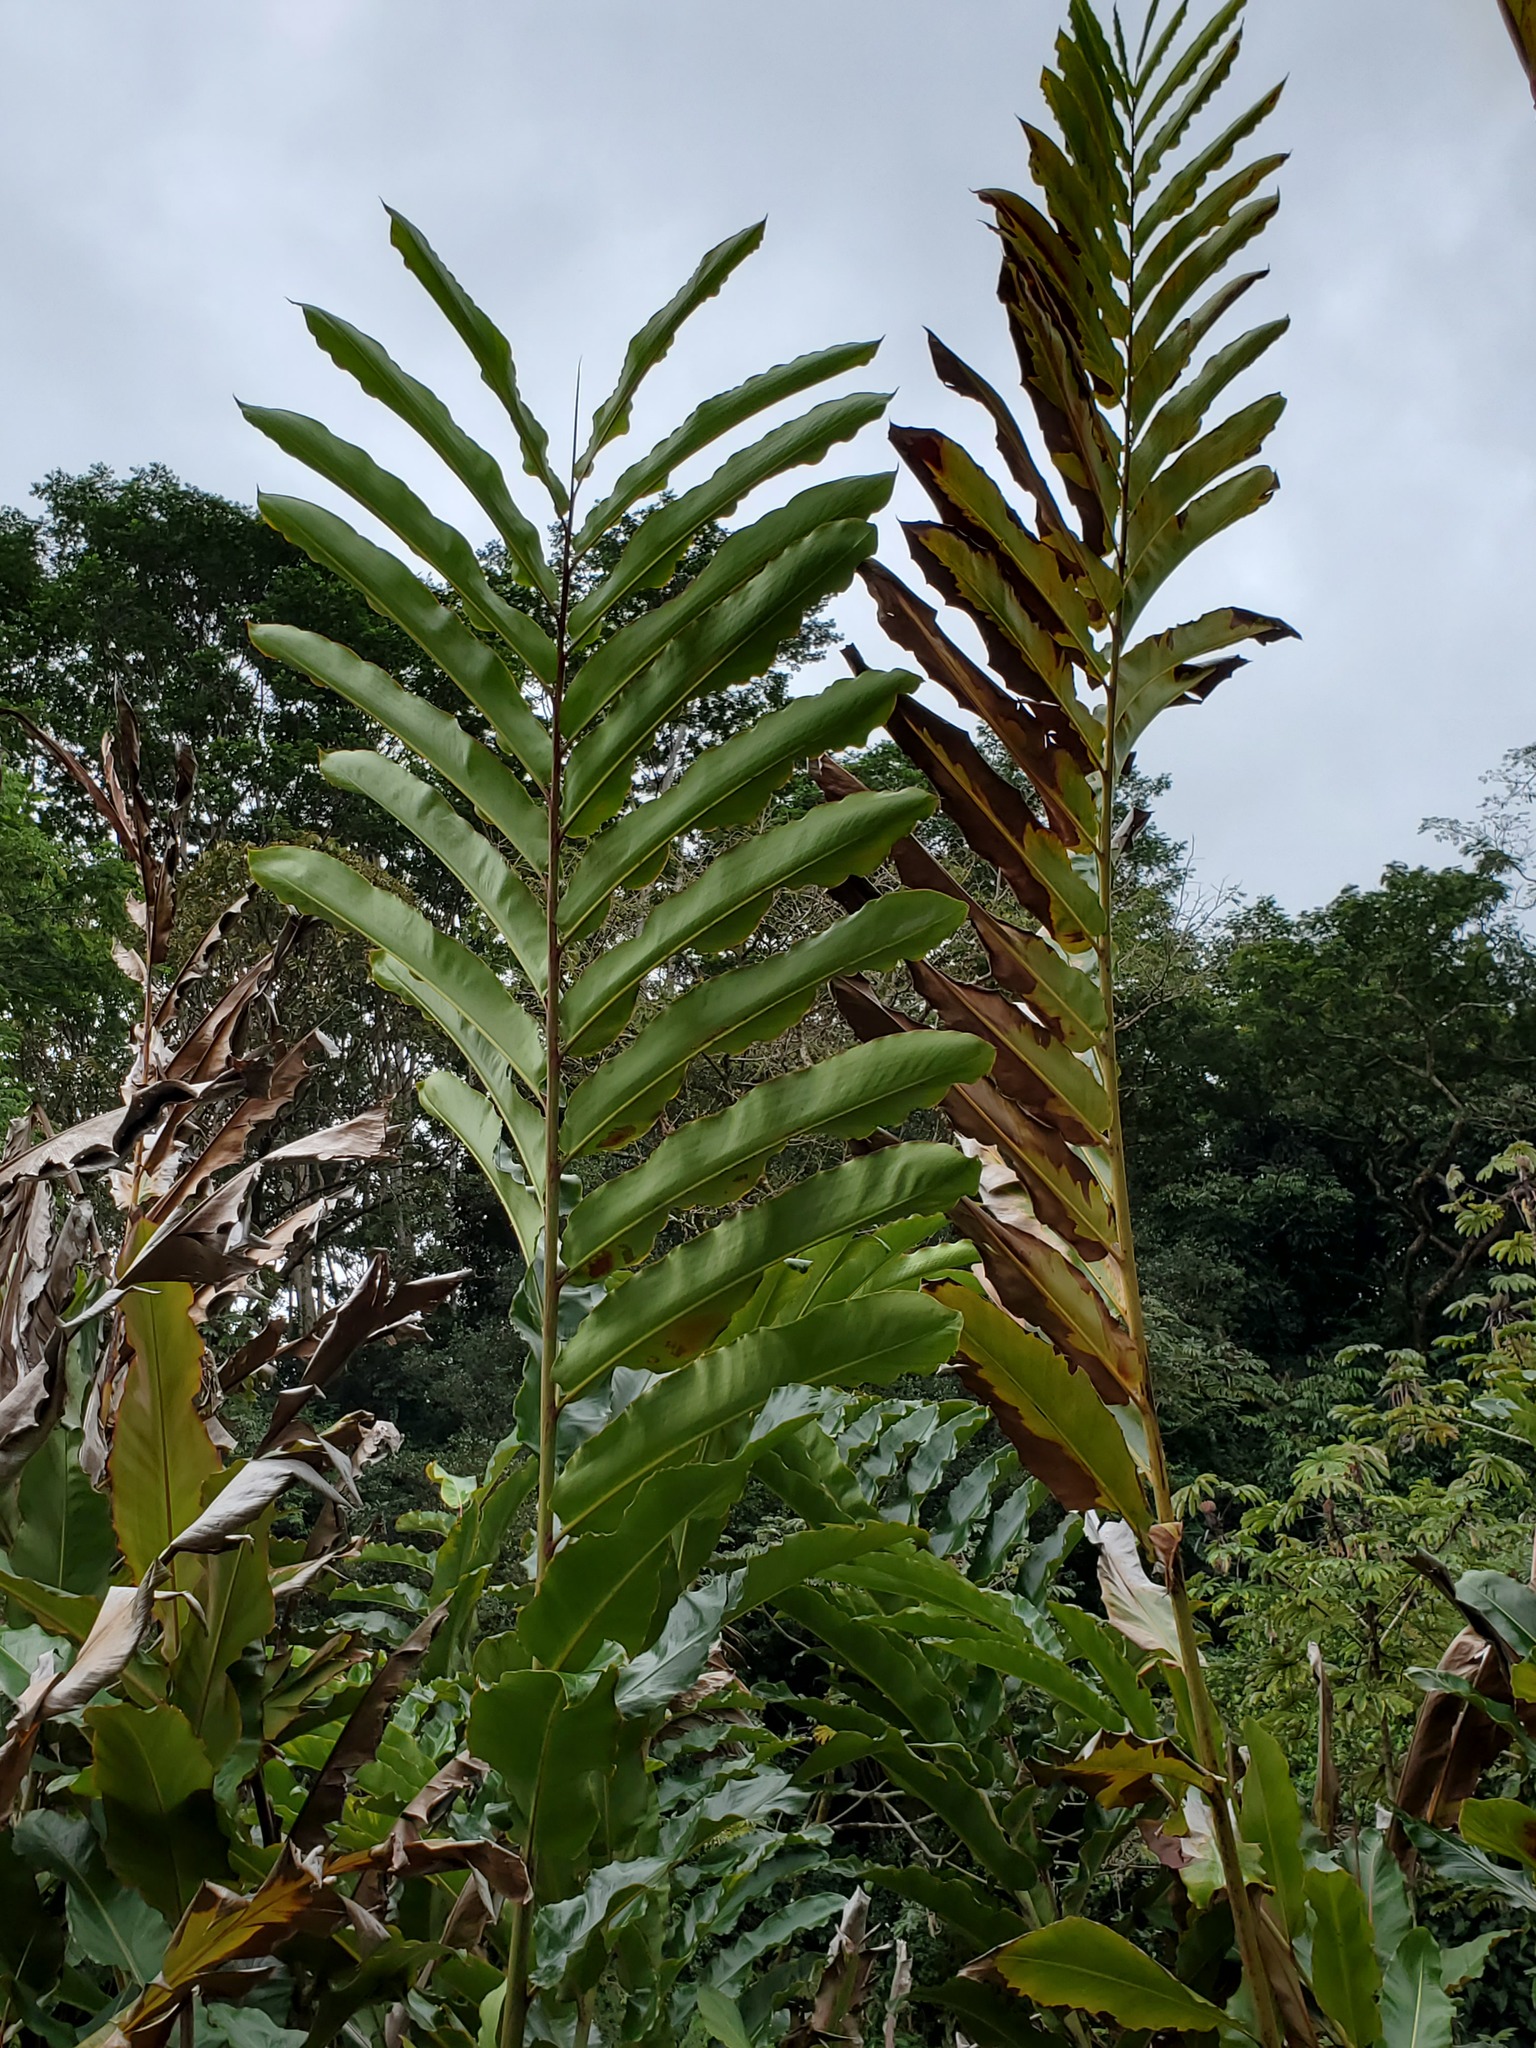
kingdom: Plantae
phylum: Tracheophyta
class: Liliopsida
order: Zingiberales
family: Zingiberaceae
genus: Alpinia
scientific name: Alpinia boia
